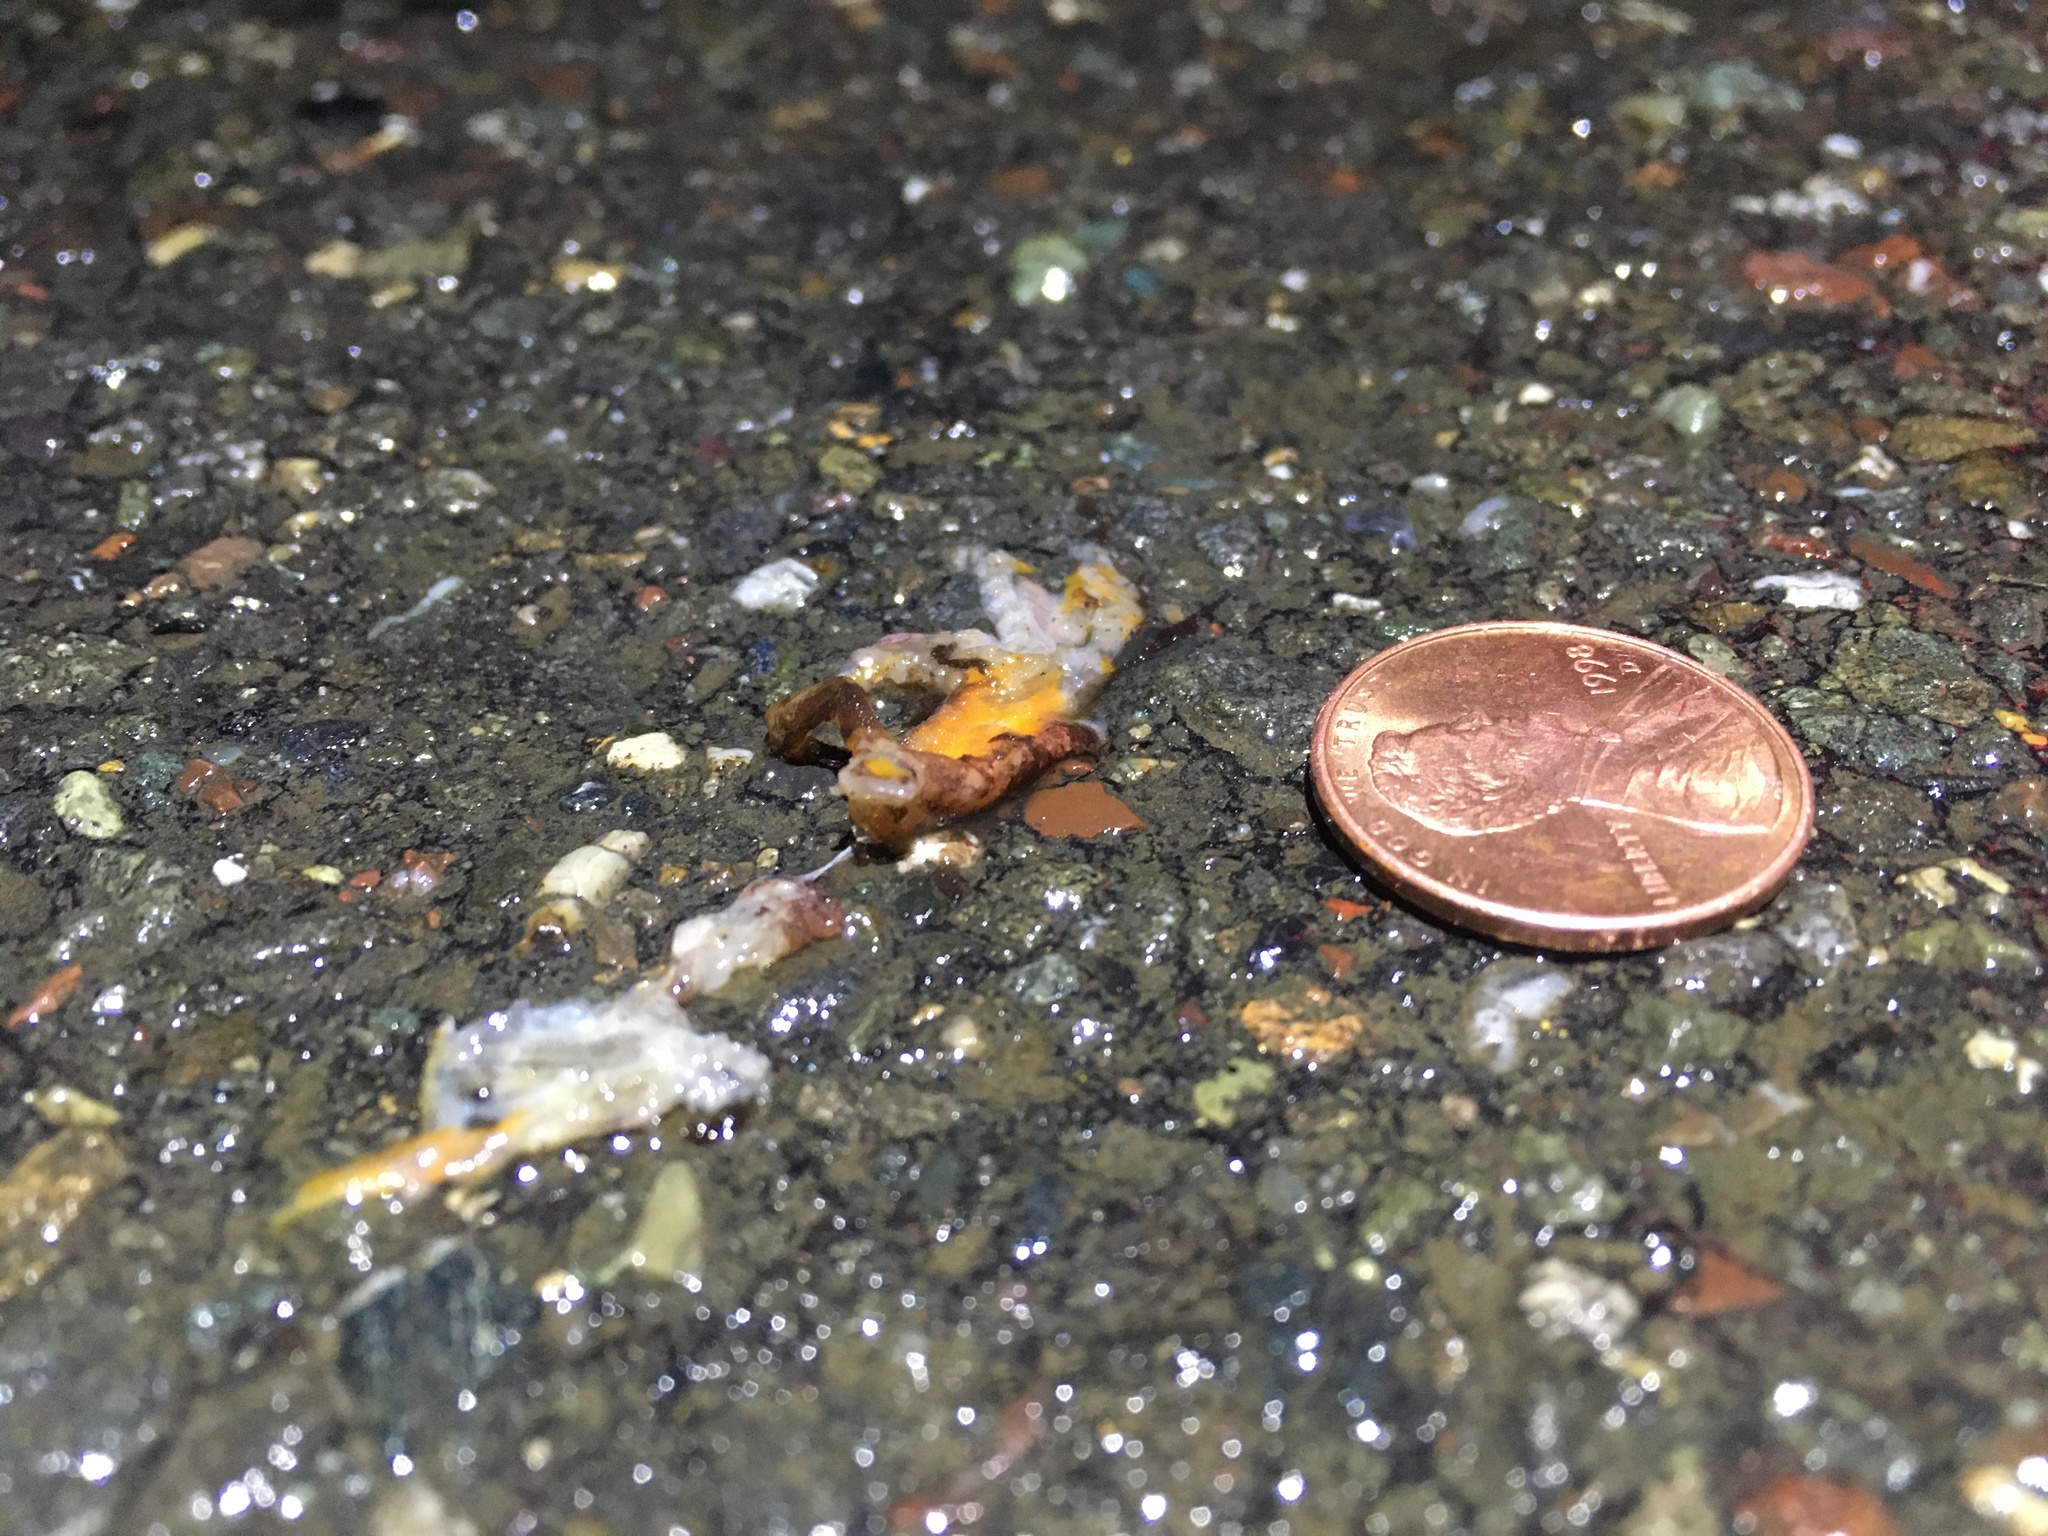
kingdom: Animalia
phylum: Chordata
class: Amphibia
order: Caudata
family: Salamandridae
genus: Taricha
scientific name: Taricha
